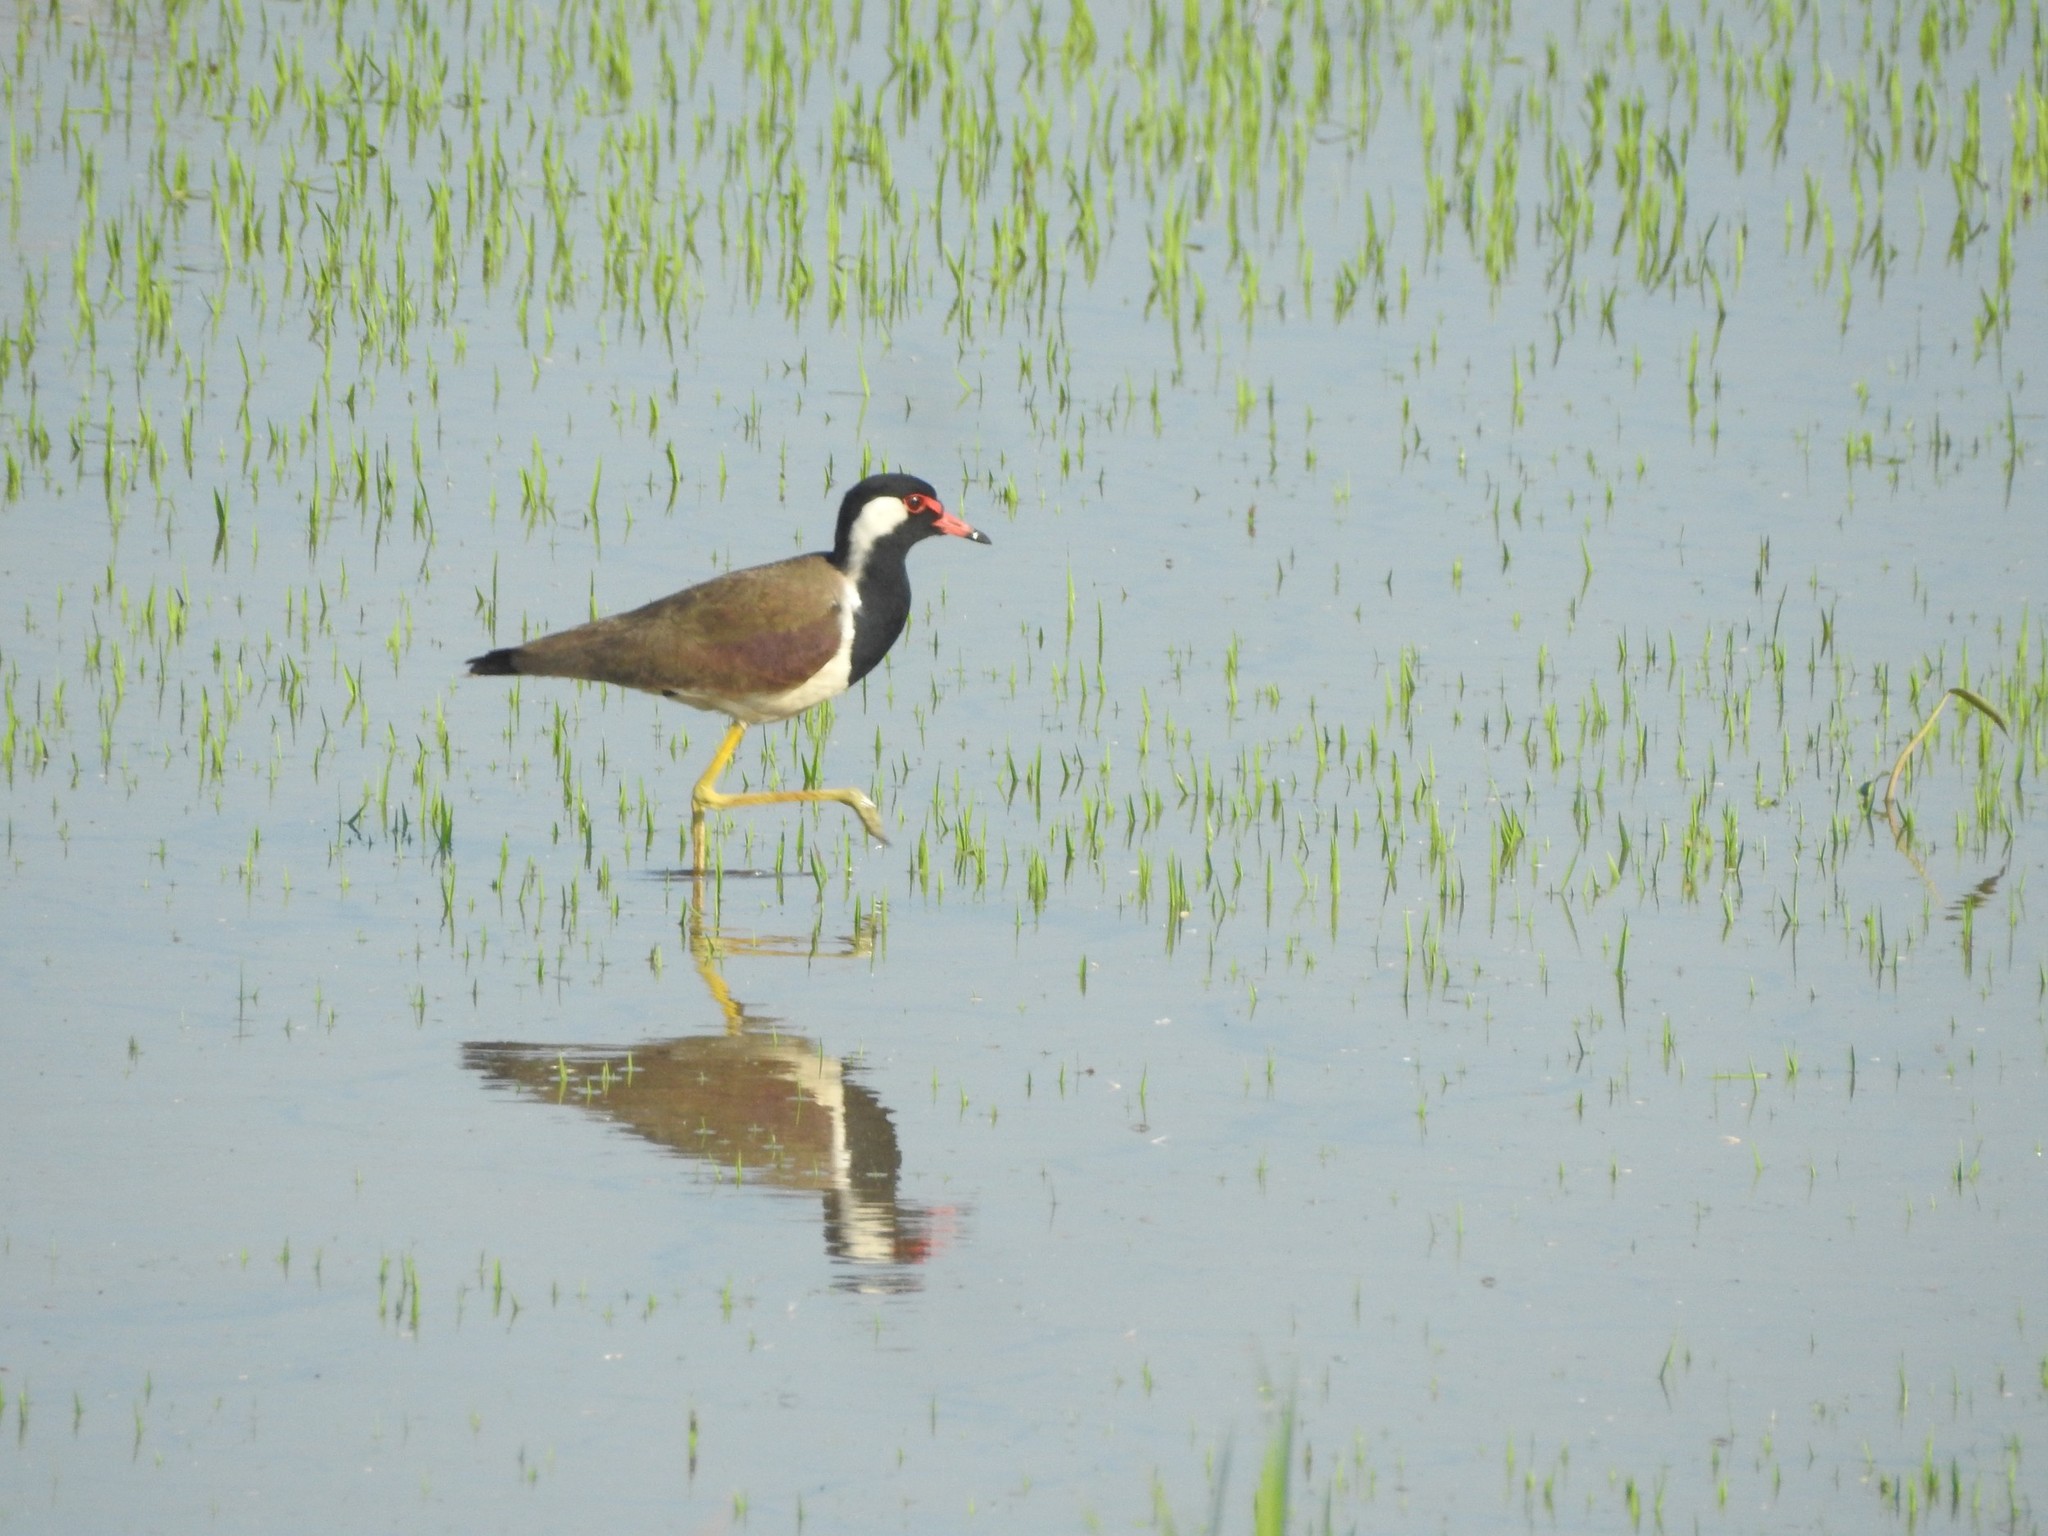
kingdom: Animalia
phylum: Chordata
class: Aves
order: Charadriiformes
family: Charadriidae
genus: Vanellus
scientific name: Vanellus indicus
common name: Red-wattled lapwing
